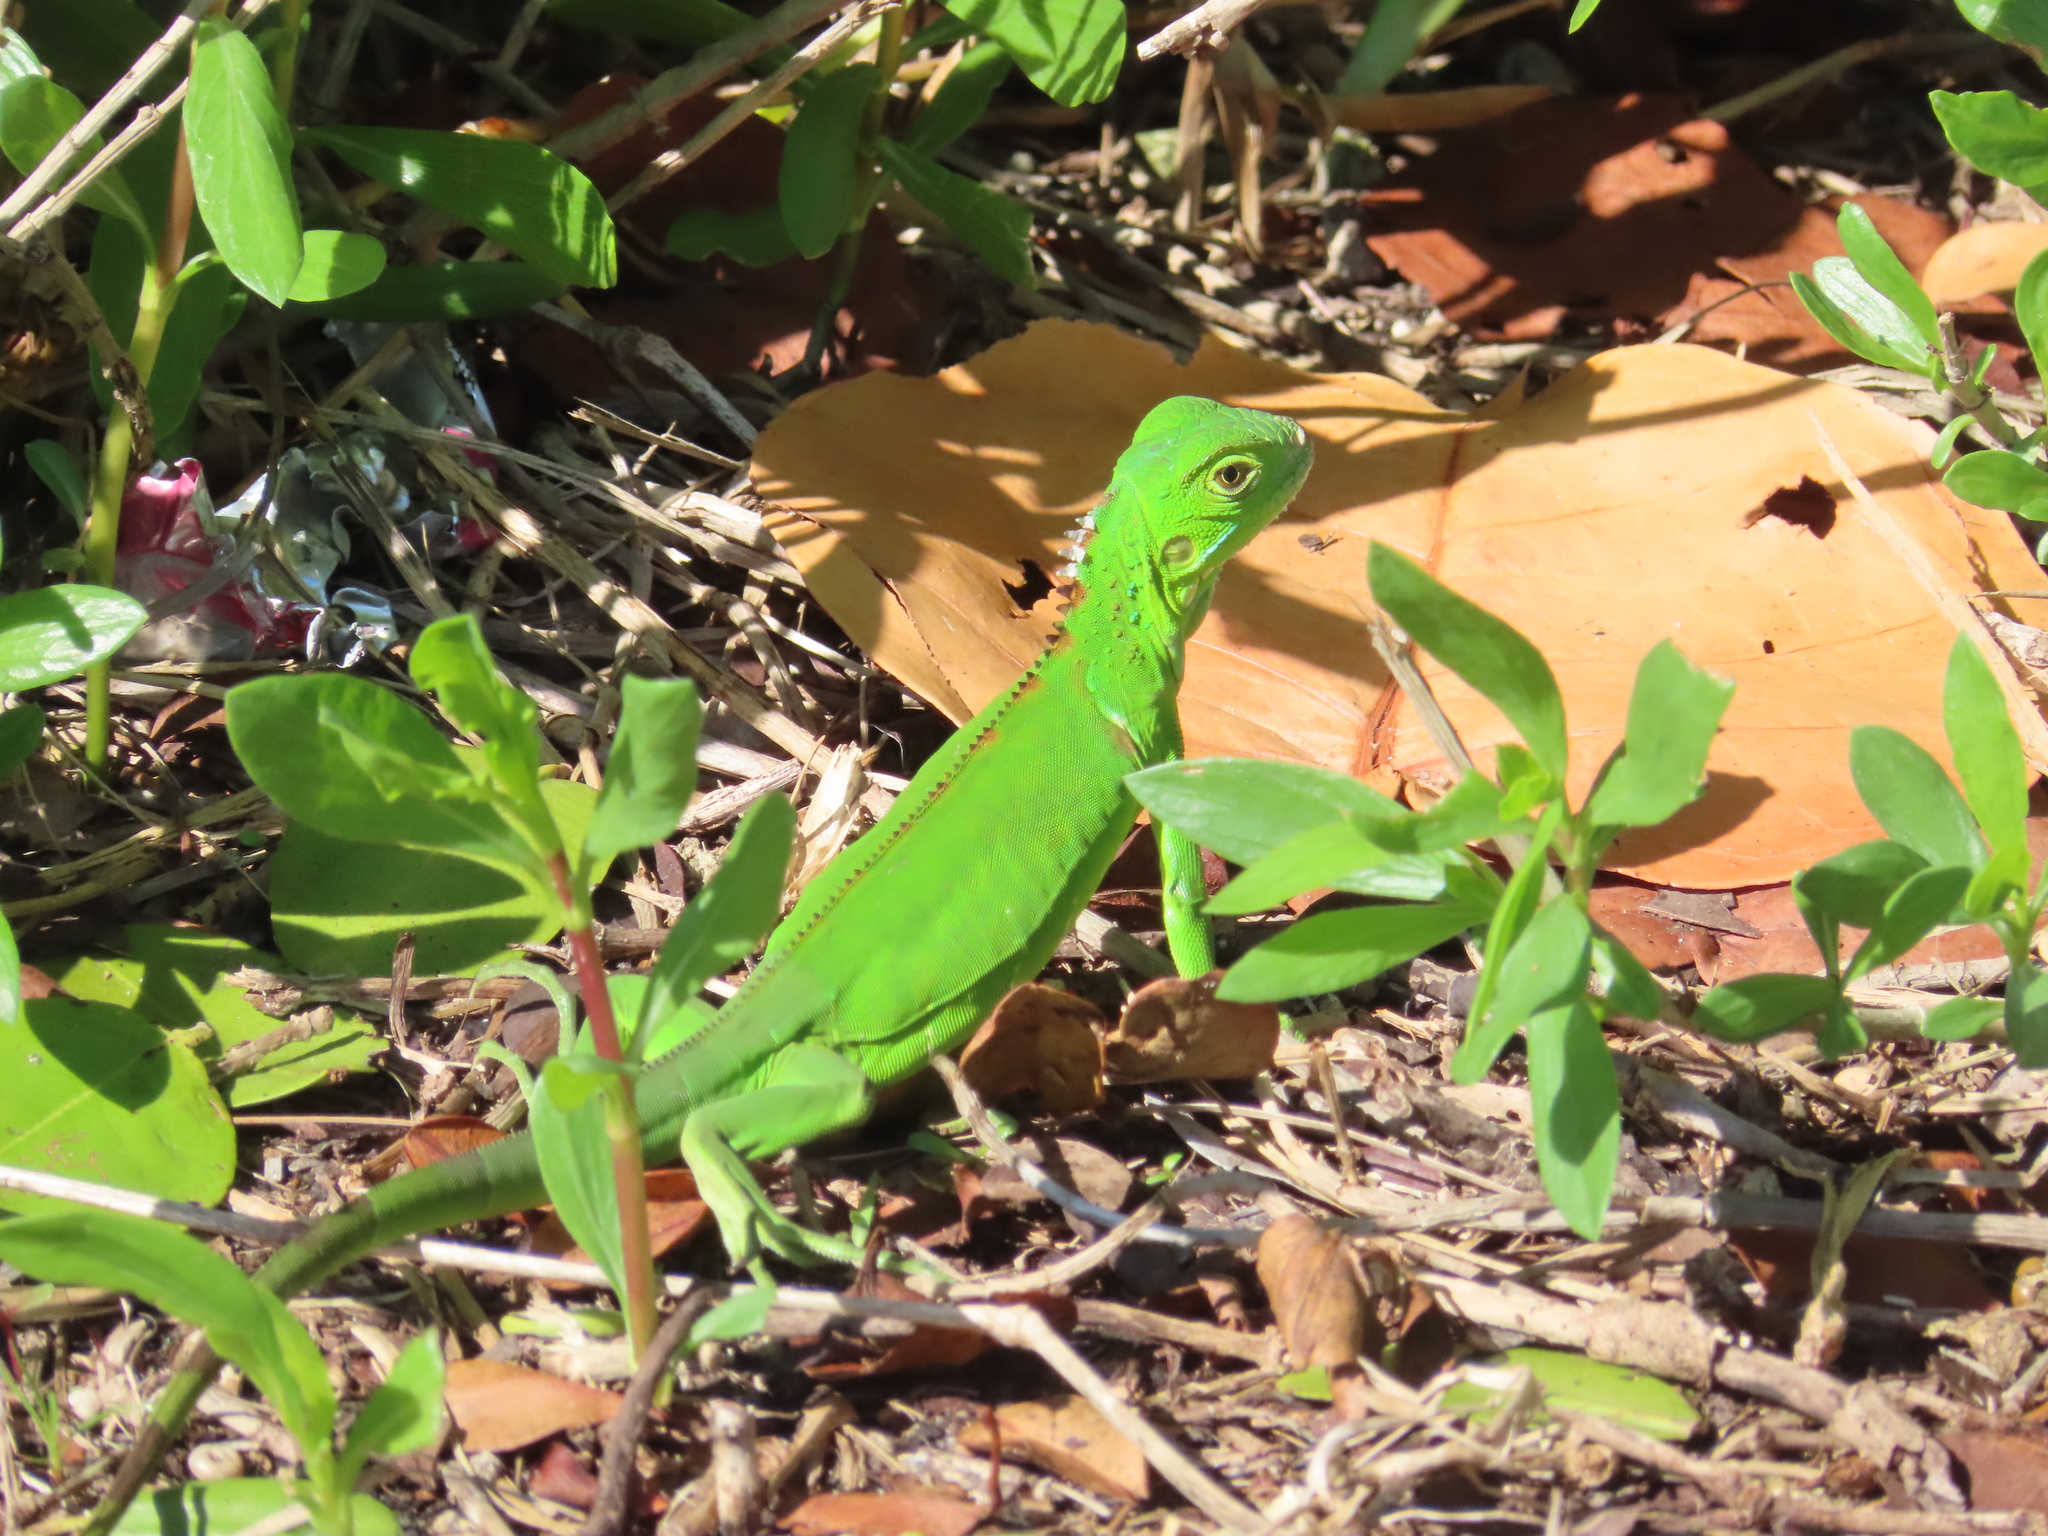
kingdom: Animalia
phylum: Chordata
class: Squamata
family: Iguanidae
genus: Iguana
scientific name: Iguana iguana
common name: Green iguana
